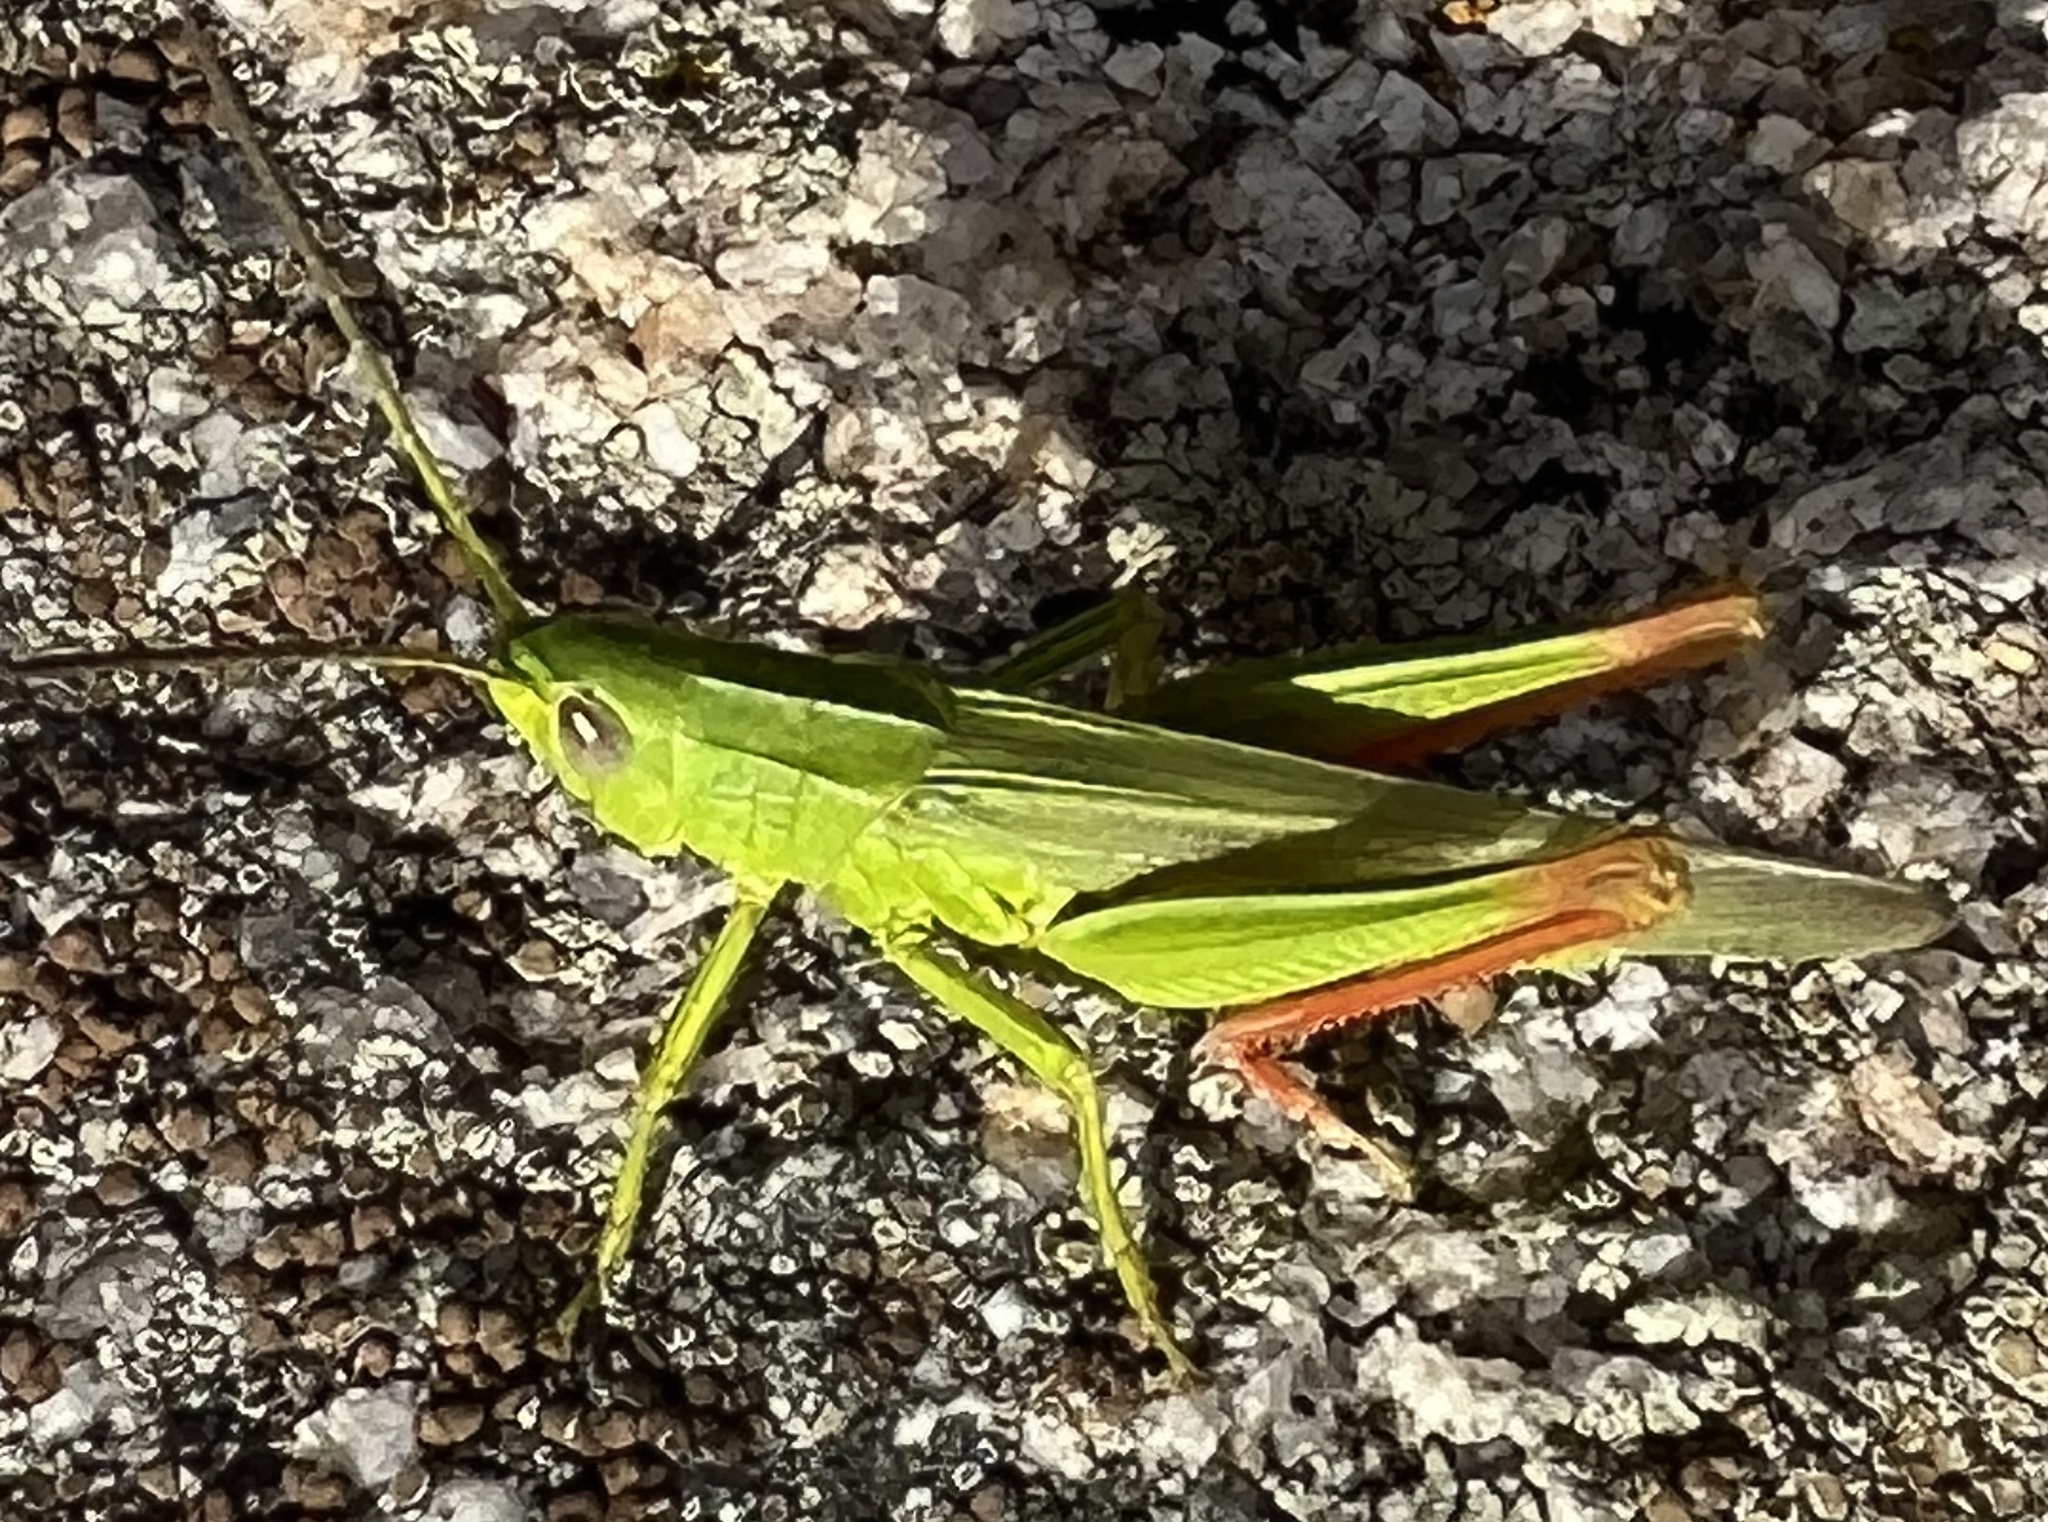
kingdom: Animalia
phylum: Arthropoda
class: Insecta
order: Orthoptera
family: Acrididae
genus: Chorthippus
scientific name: Chorthippus jucundus
